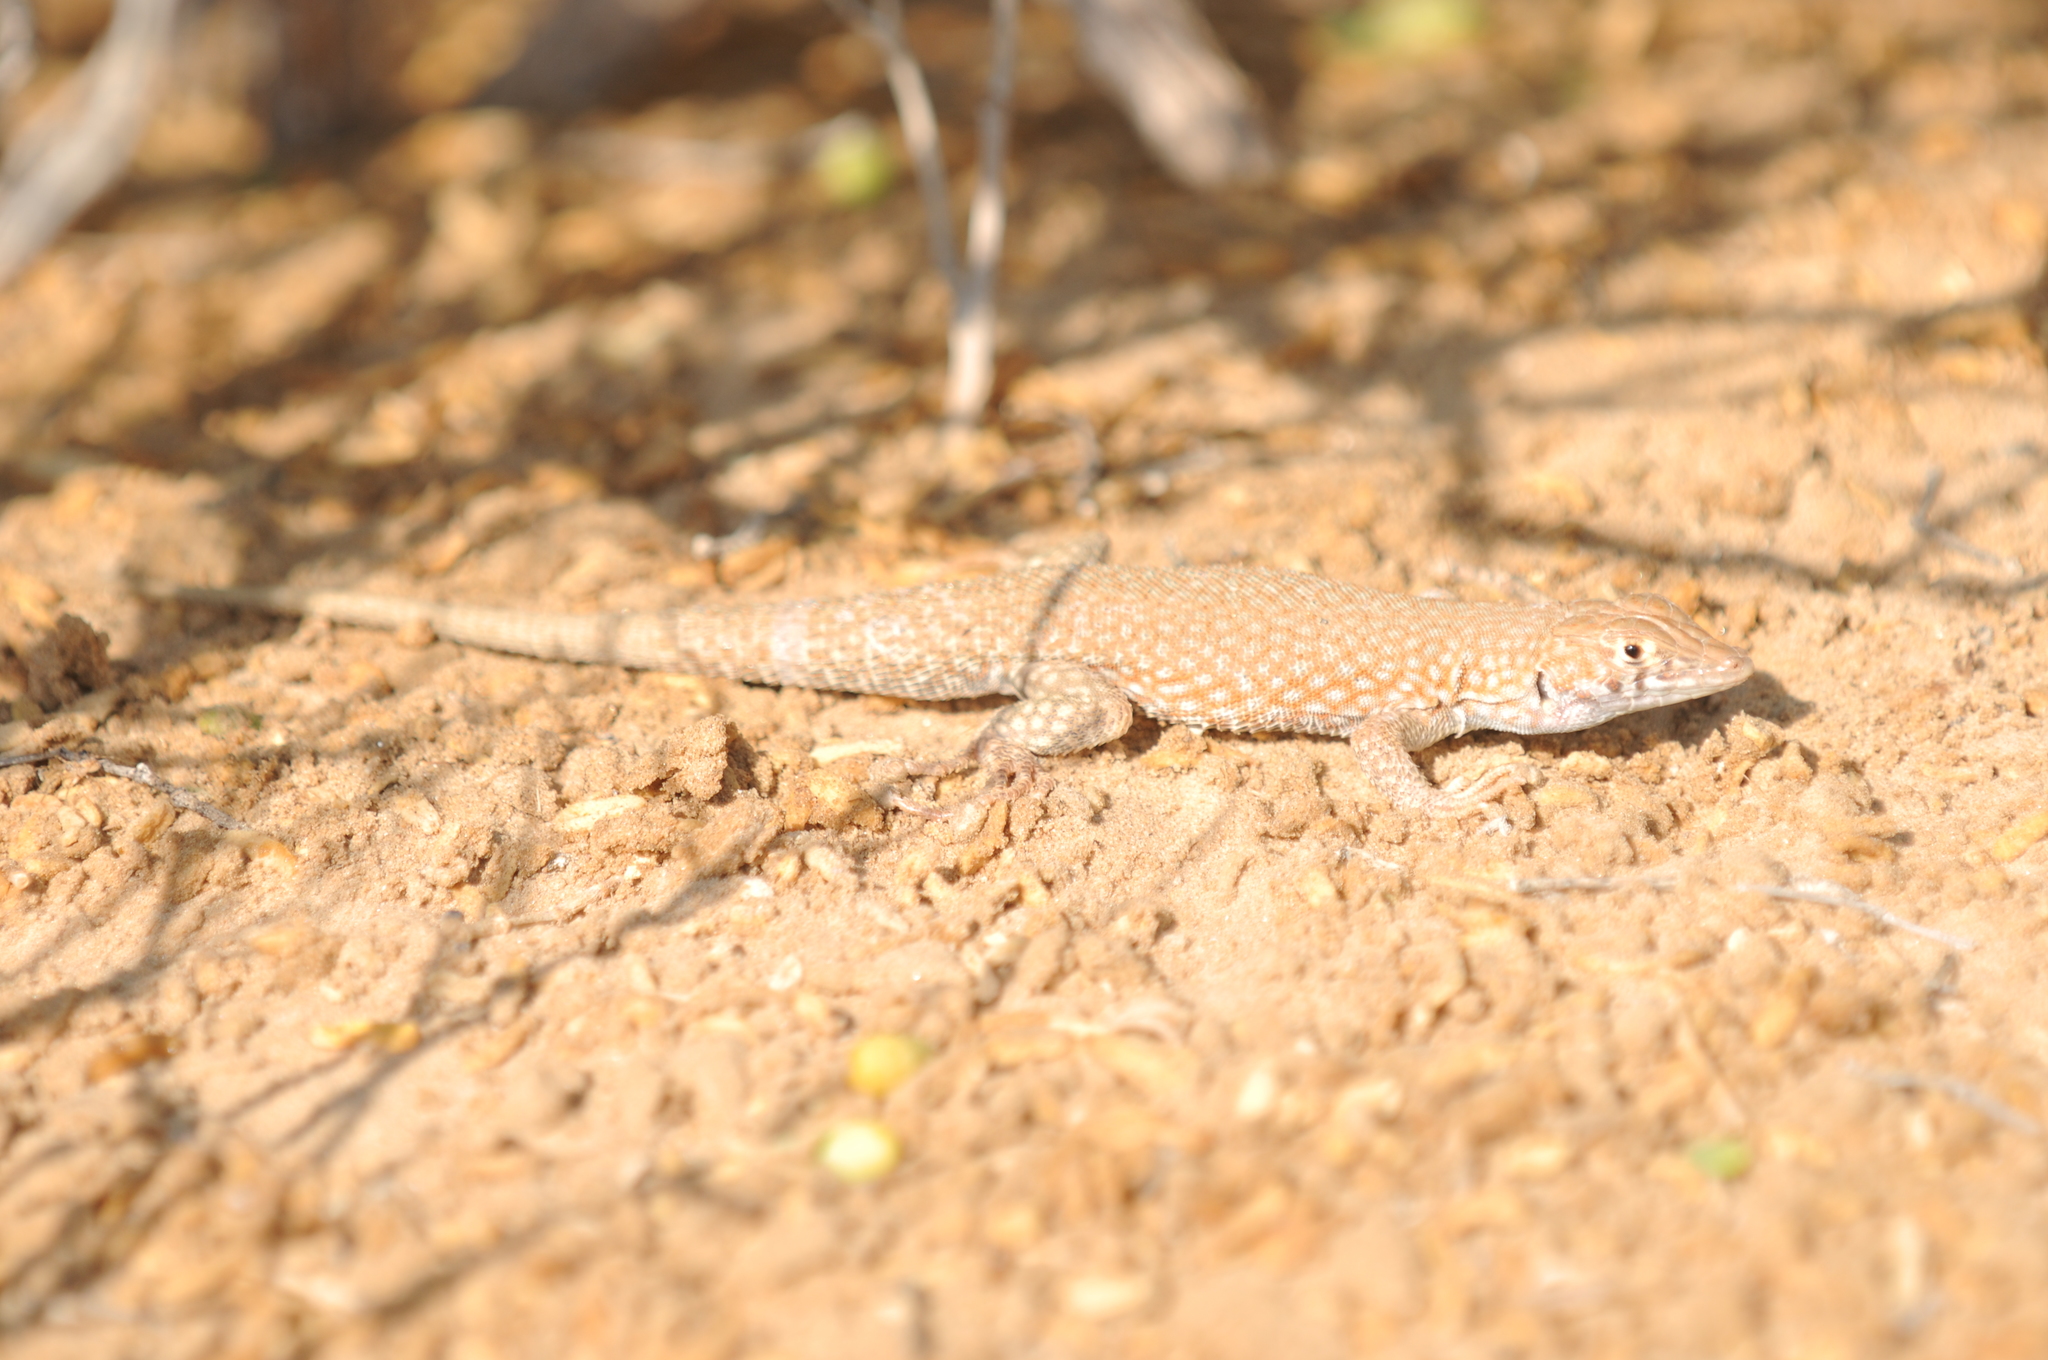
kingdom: Animalia
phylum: Chordata
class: Squamata
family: Lacertidae
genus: Acanthodactylus
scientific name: Acanthodactylus schmidti
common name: Schmidt's fringe-toed lizard
